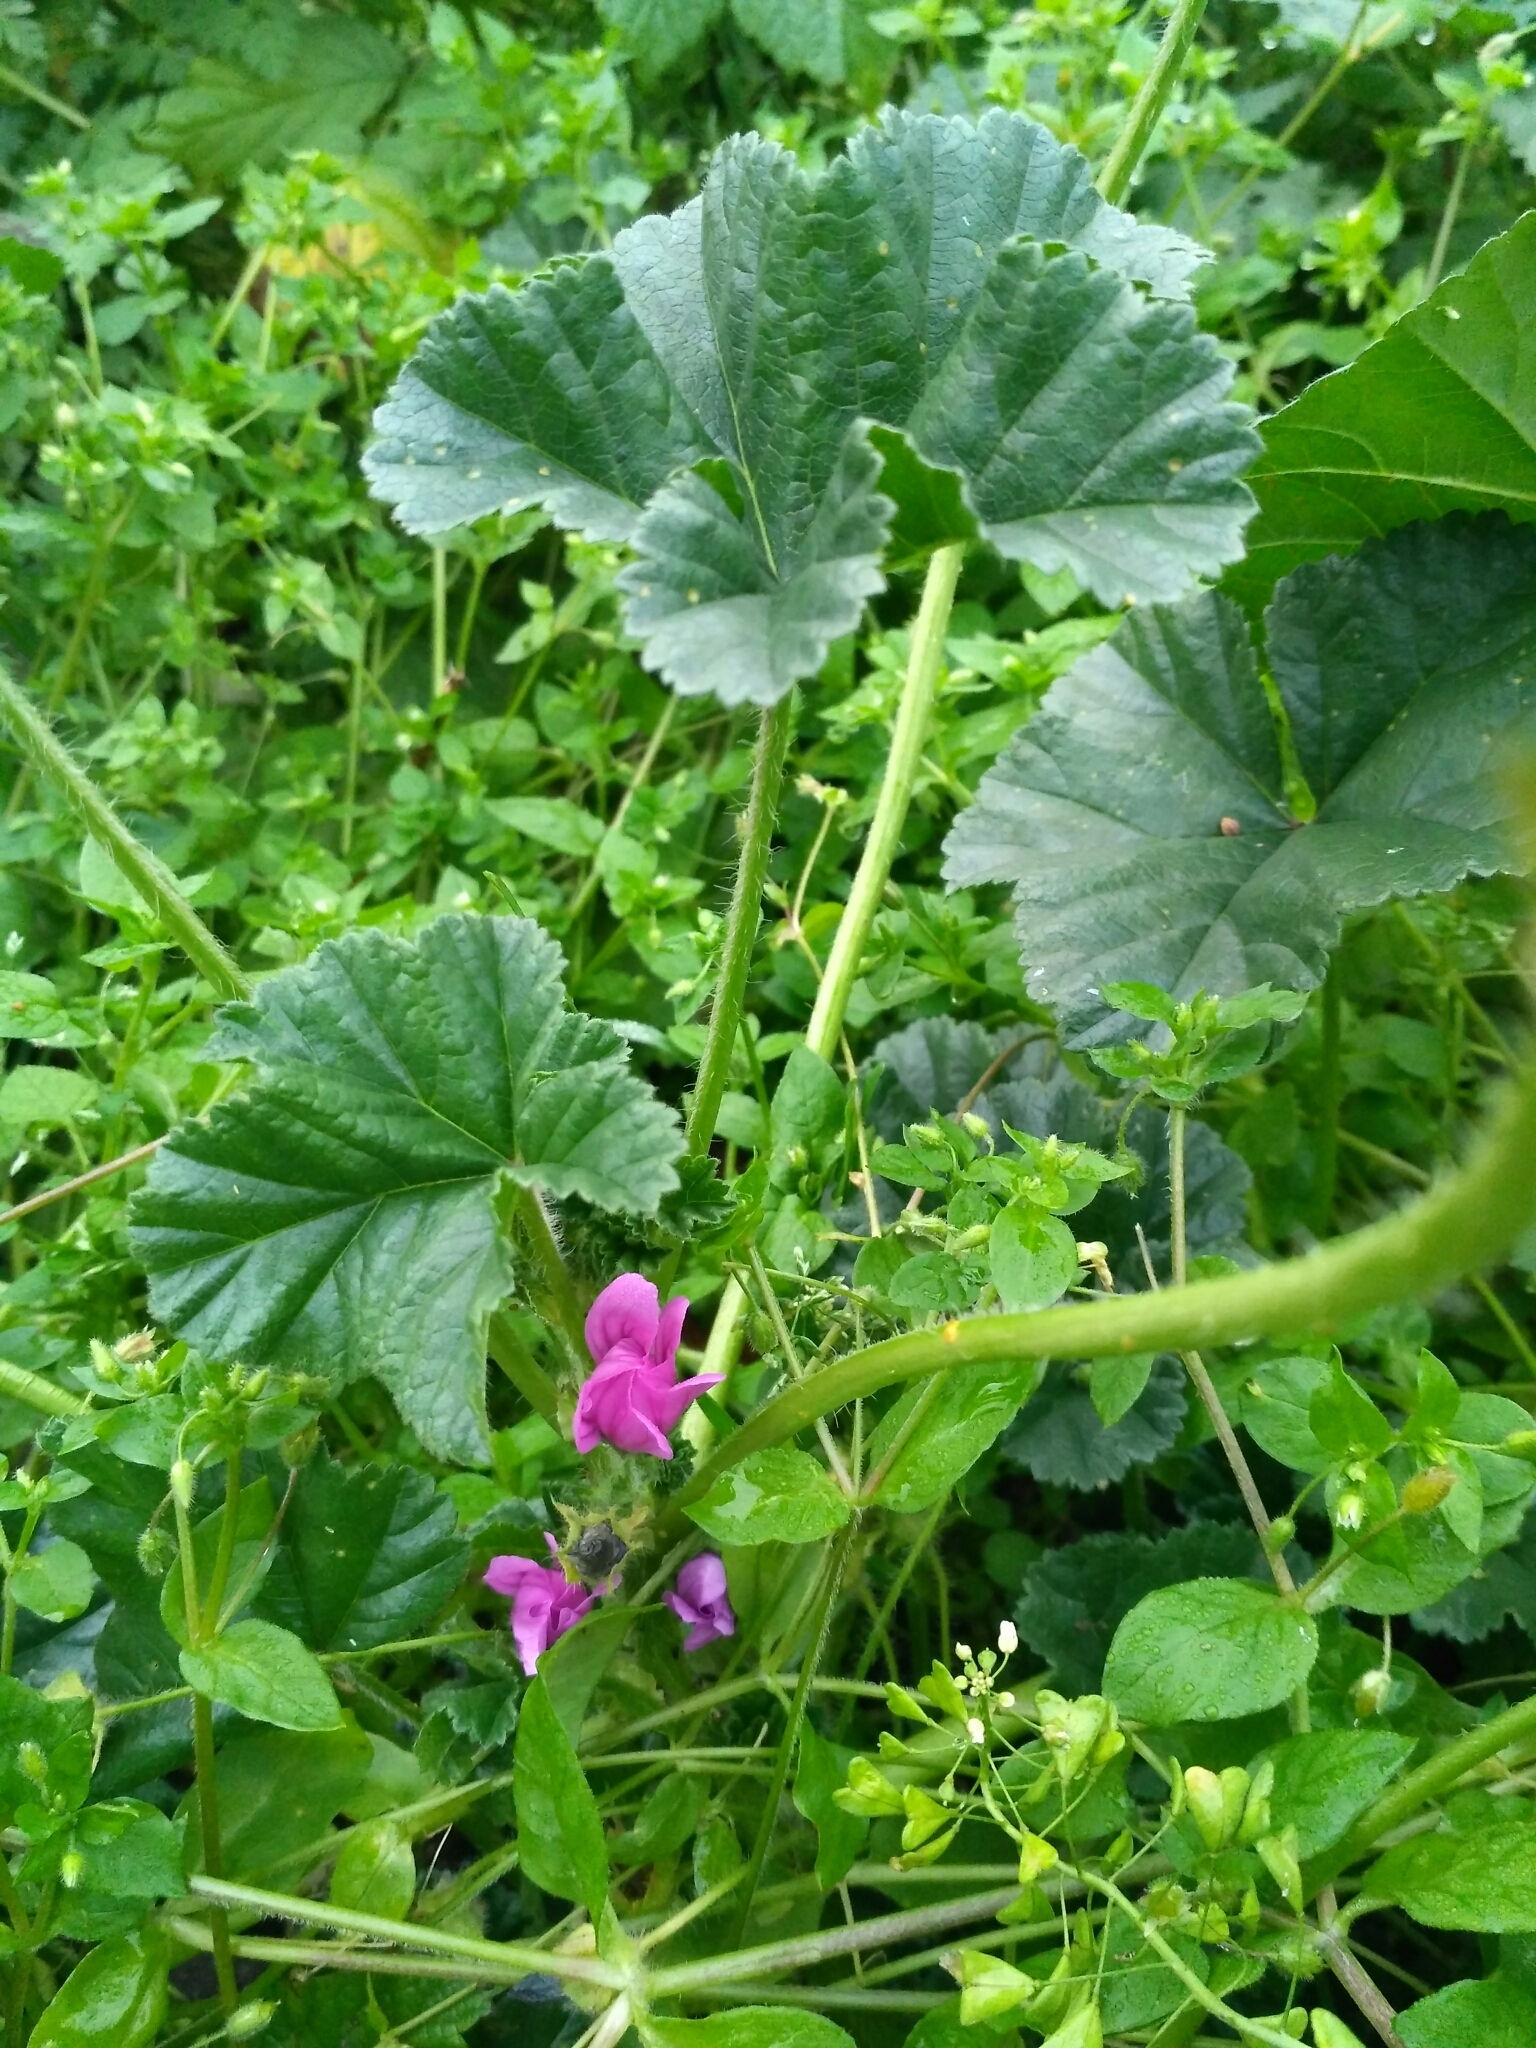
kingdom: Plantae
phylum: Tracheophyta
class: Magnoliopsida
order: Malvales
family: Malvaceae
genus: Malva
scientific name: Malva sylvestris
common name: Common mallow
